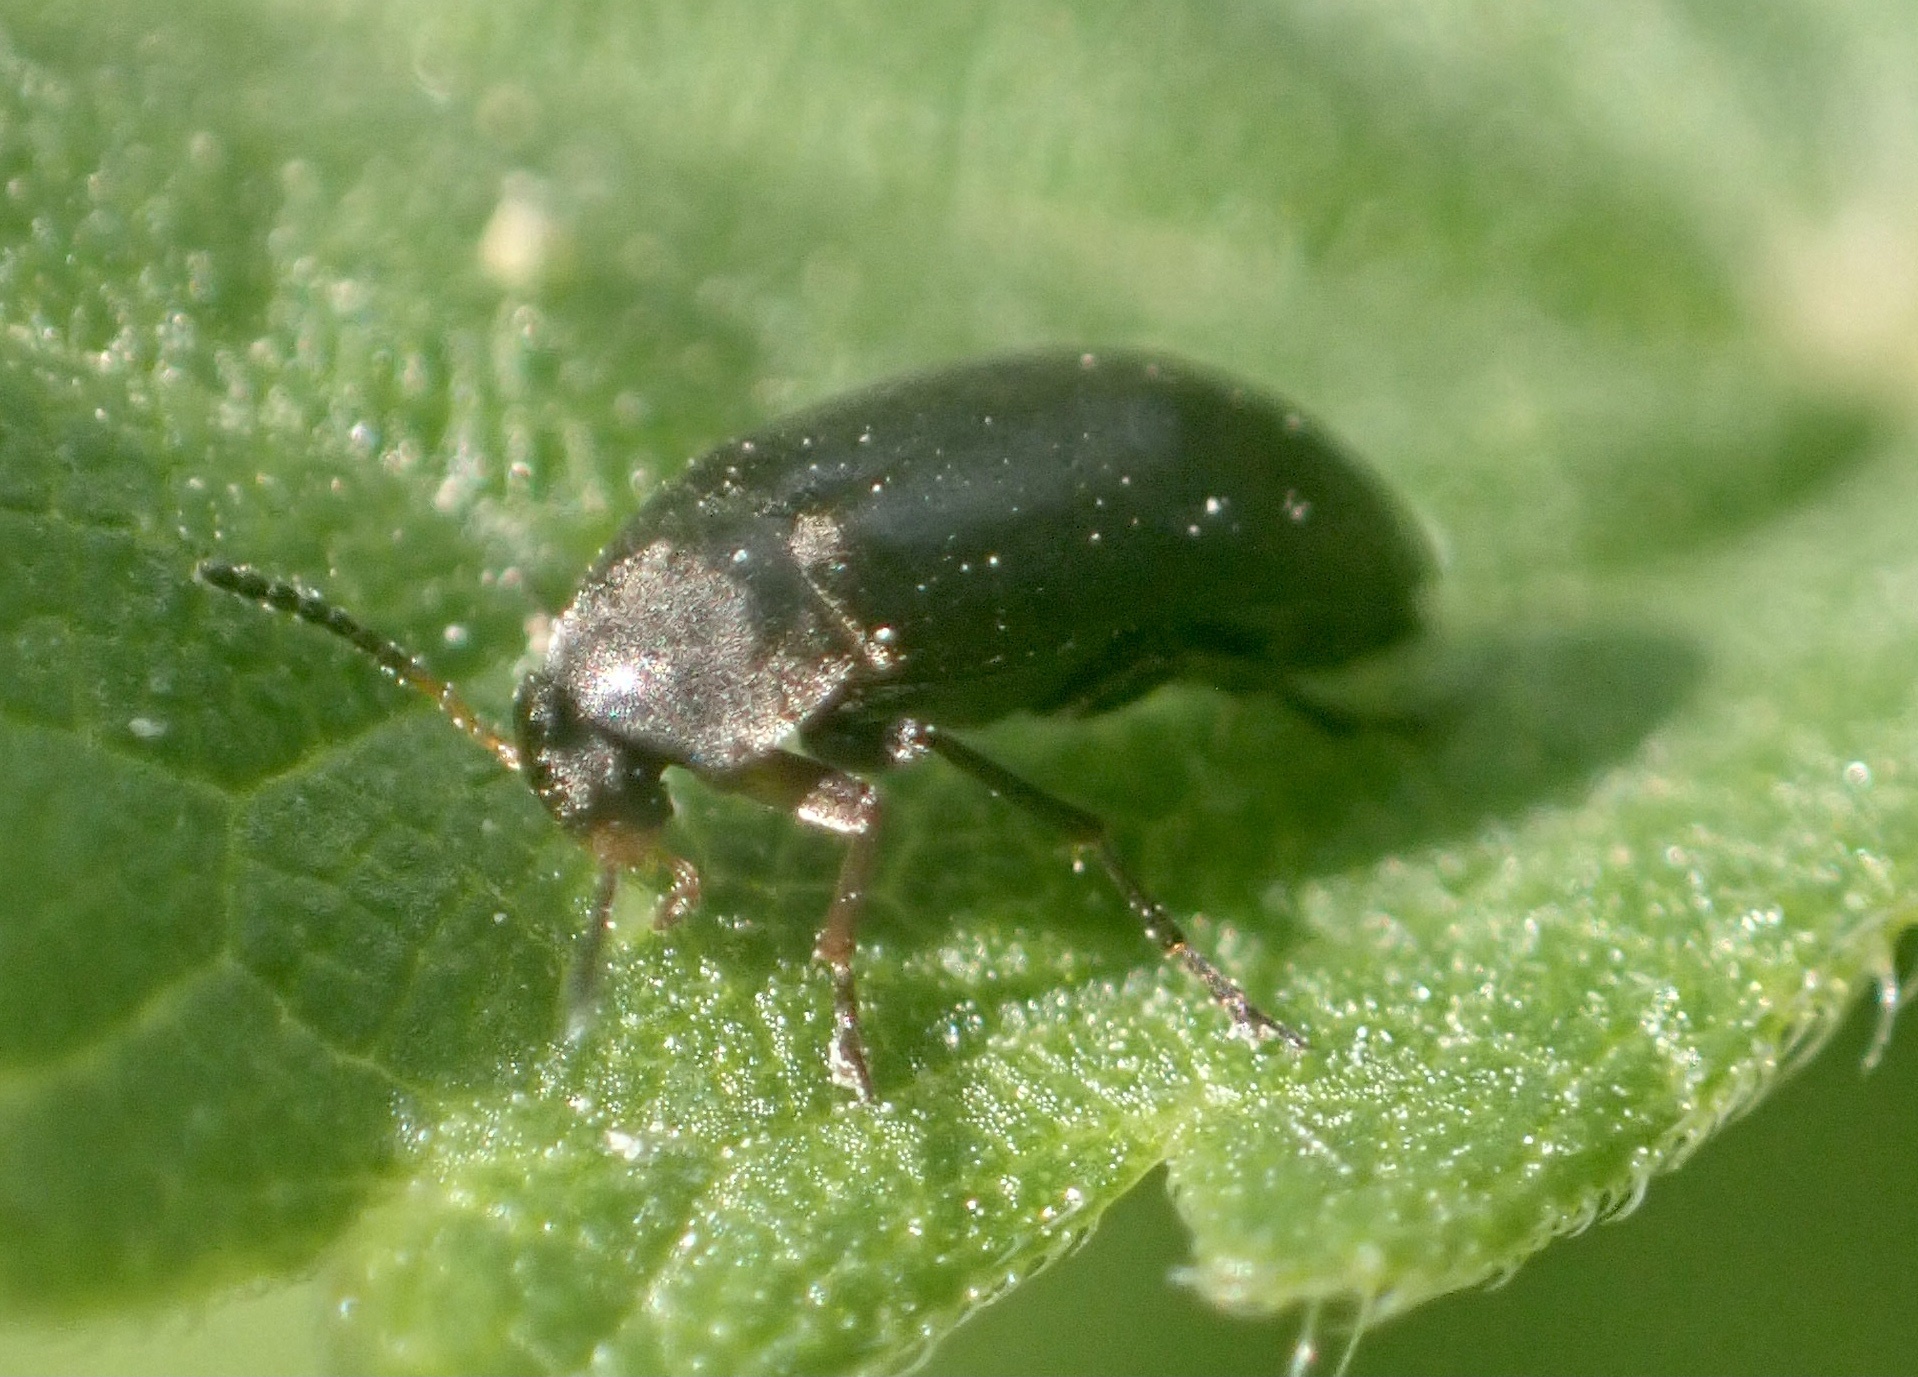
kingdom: Animalia
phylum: Arthropoda
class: Insecta
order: Coleoptera
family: Scraptiidae
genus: Anaspis
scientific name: Anaspis rufilabris
